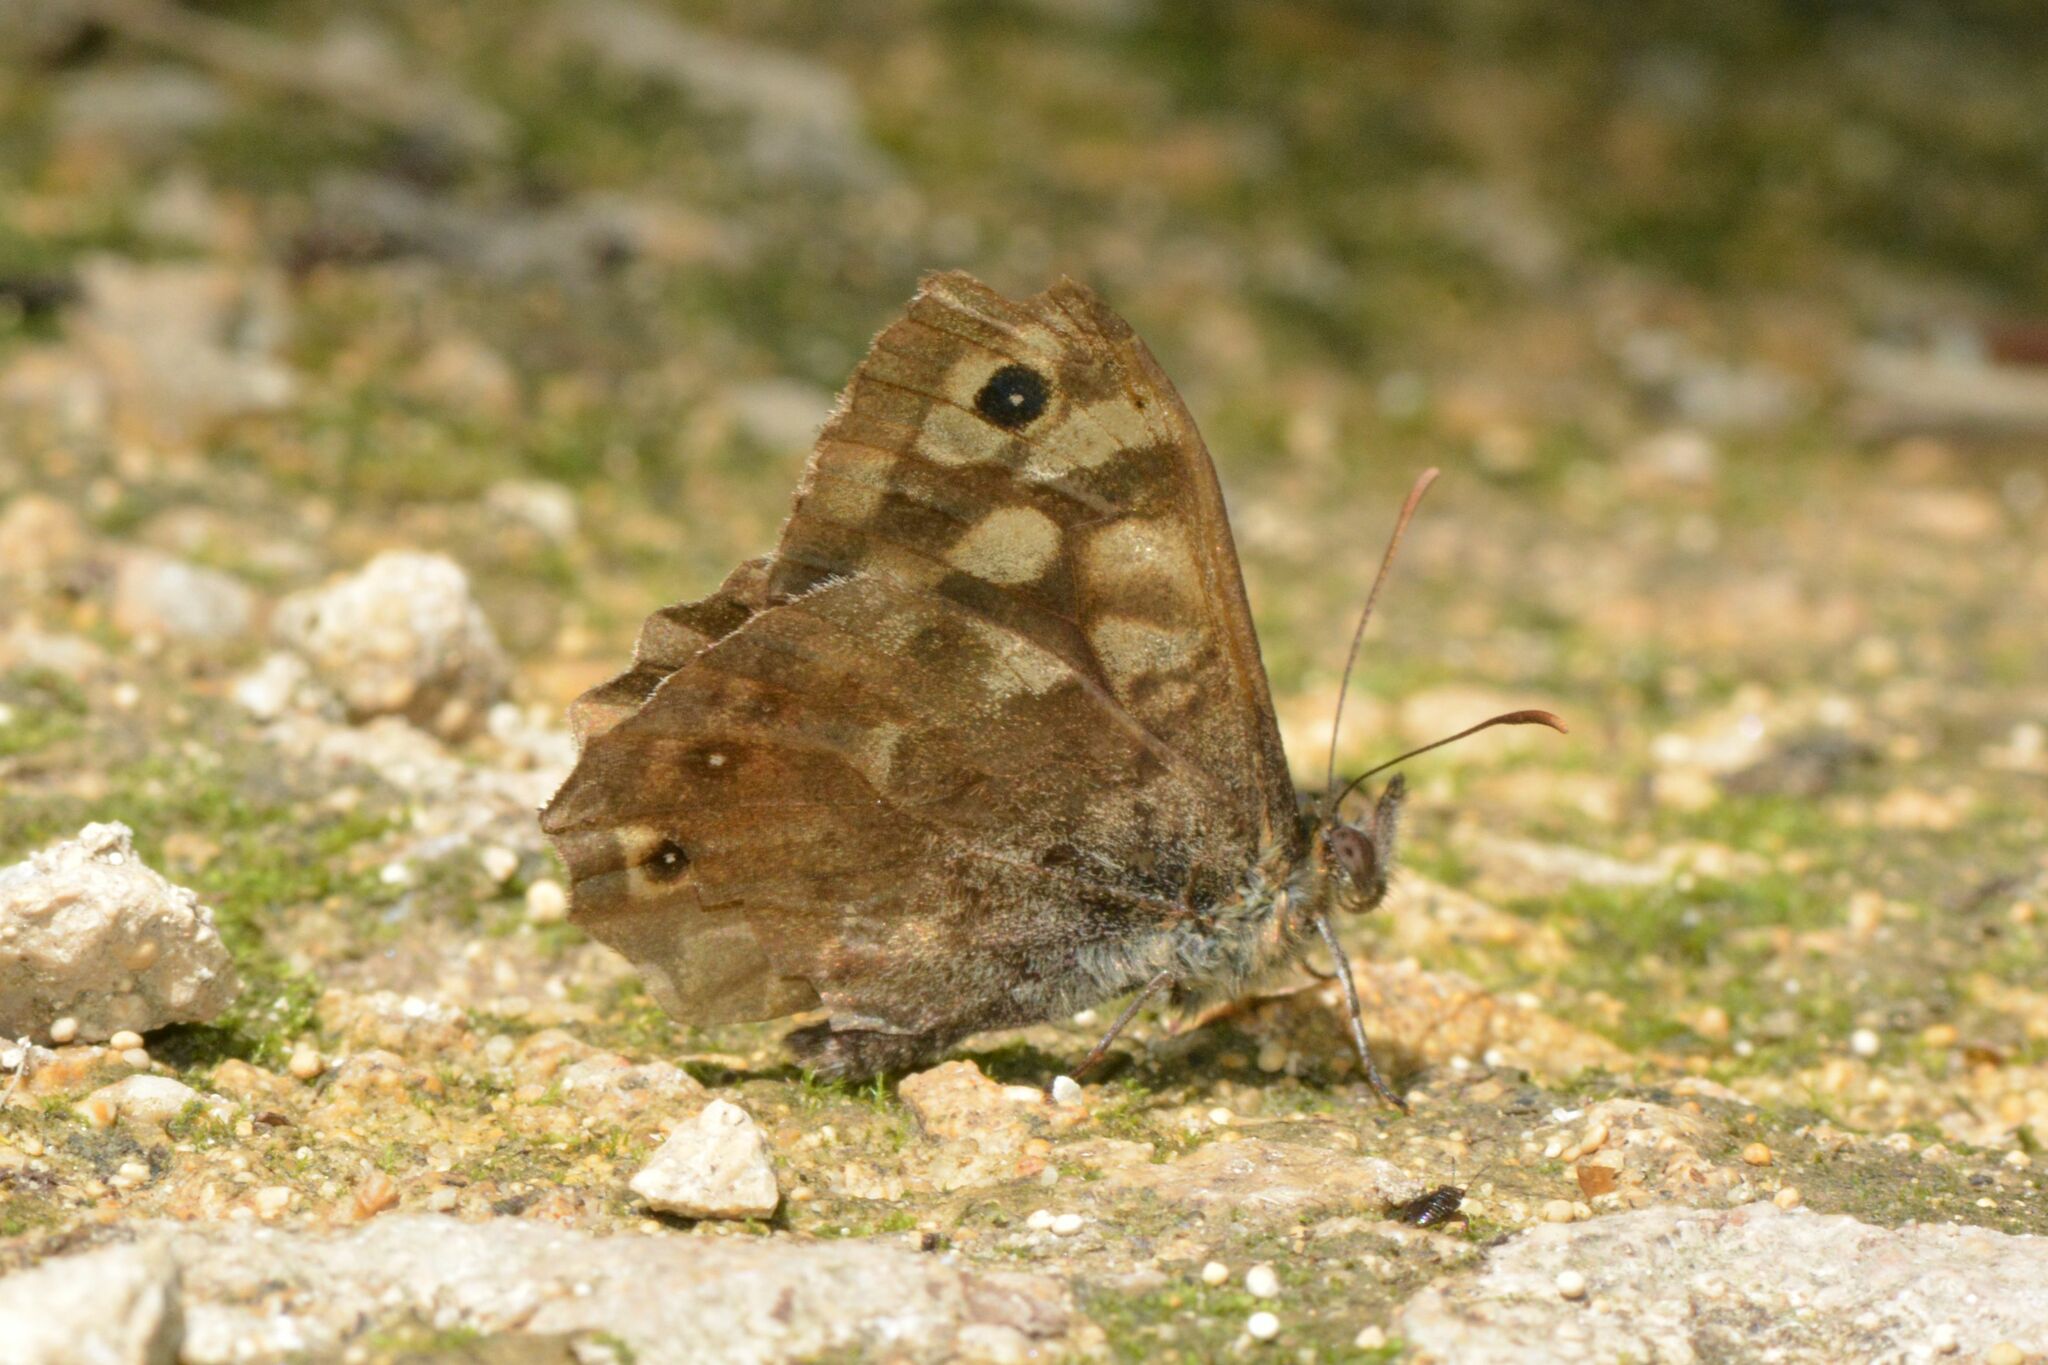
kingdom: Animalia
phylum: Arthropoda
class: Insecta
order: Lepidoptera
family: Nymphalidae
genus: Pararge
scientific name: Pararge aegeria
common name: Speckled wood
